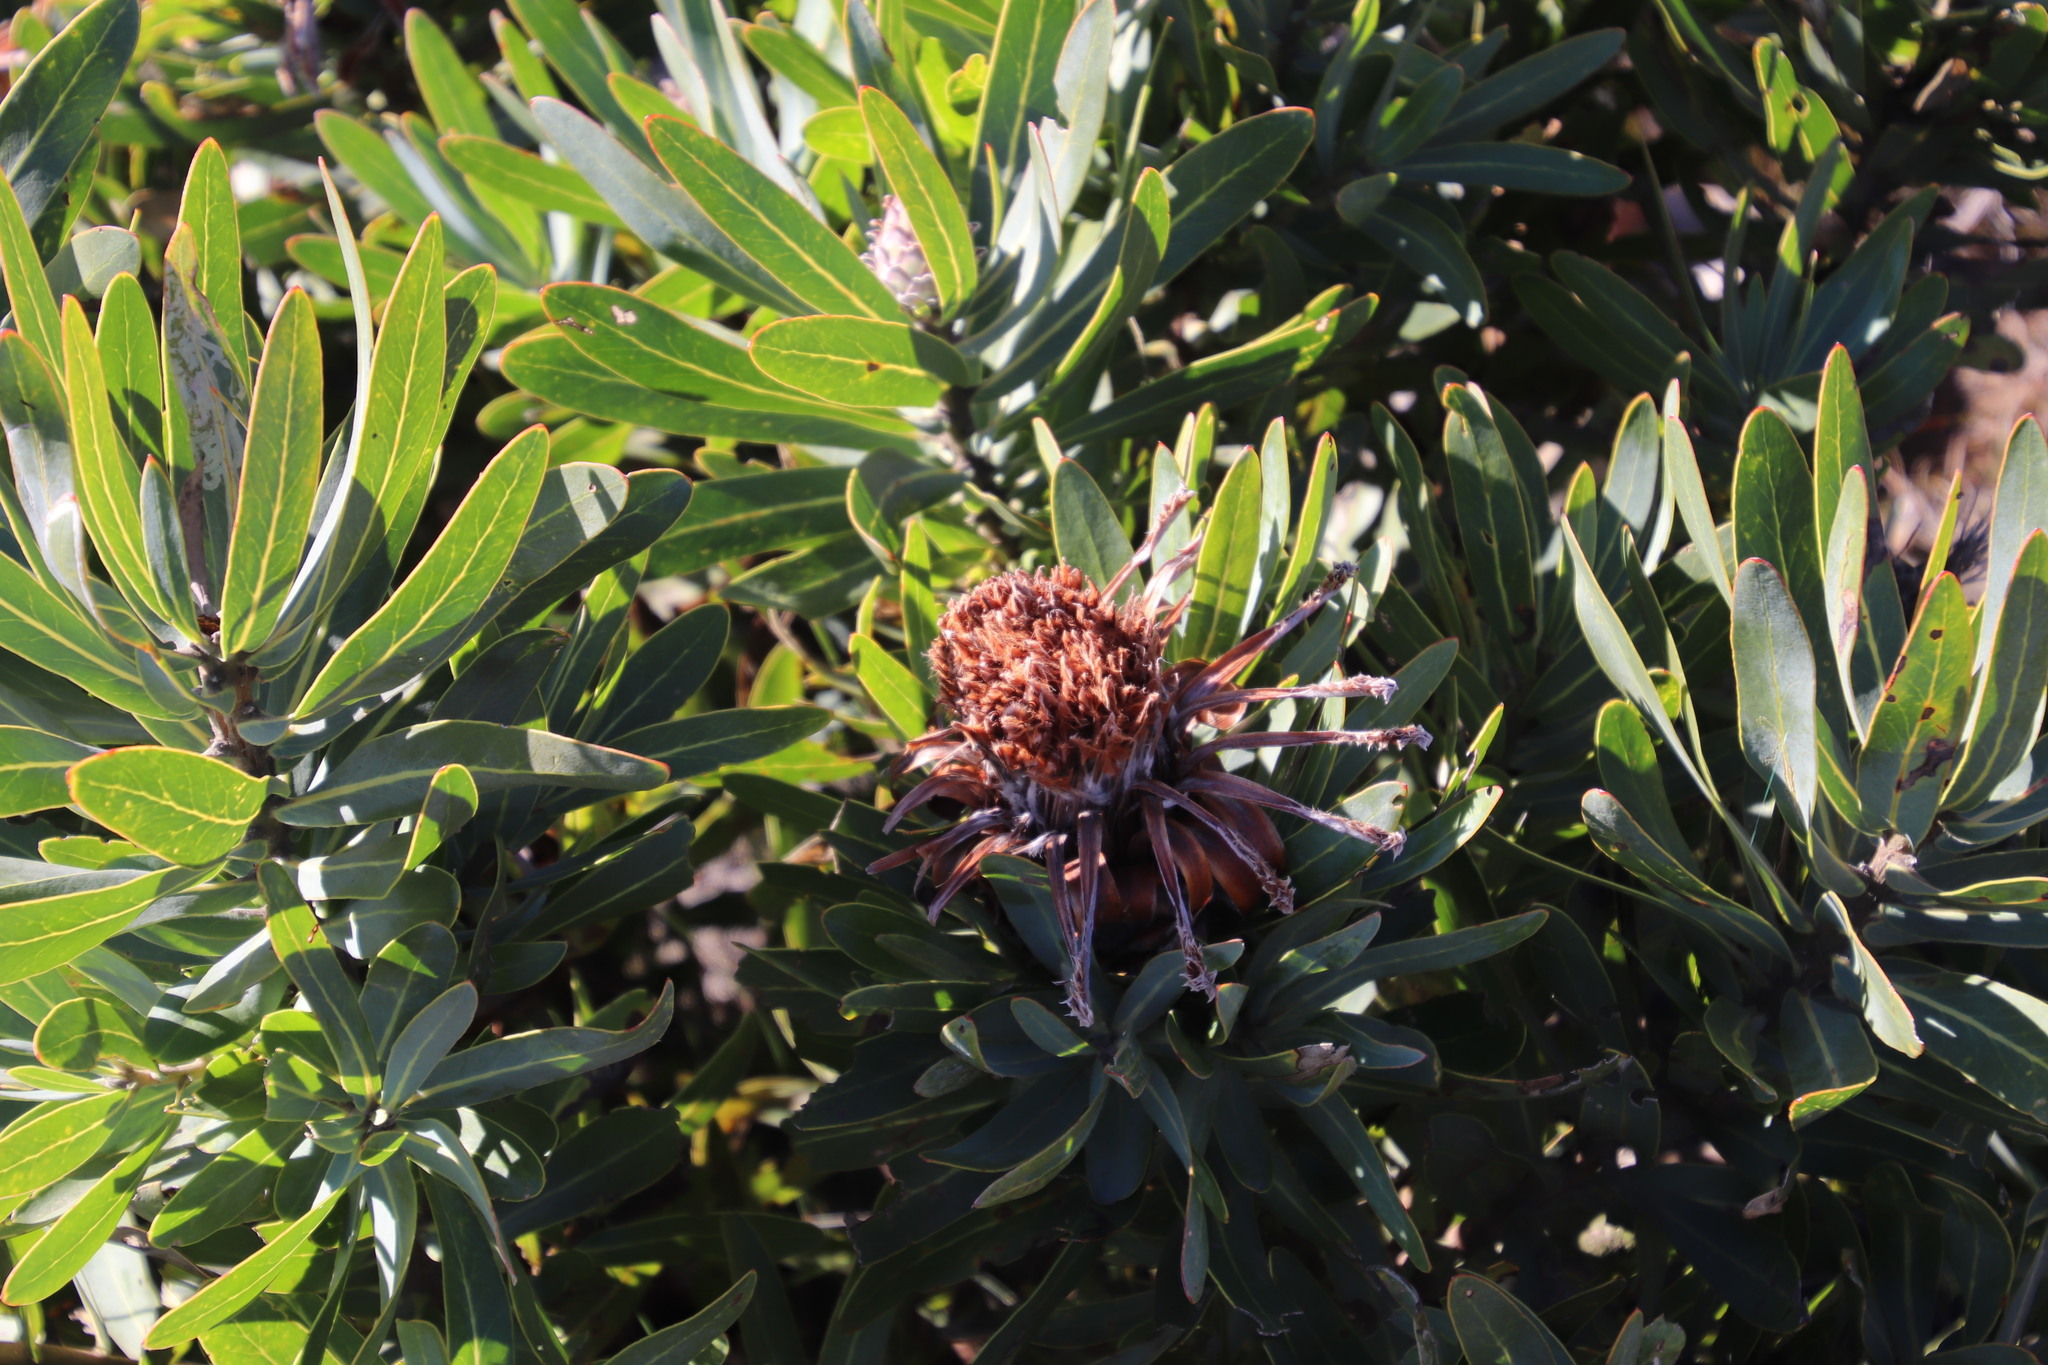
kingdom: Plantae
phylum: Tracheophyta
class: Magnoliopsida
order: Proteales
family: Proteaceae
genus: Protea
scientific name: Protea neriifolia
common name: Blue sugarbush
